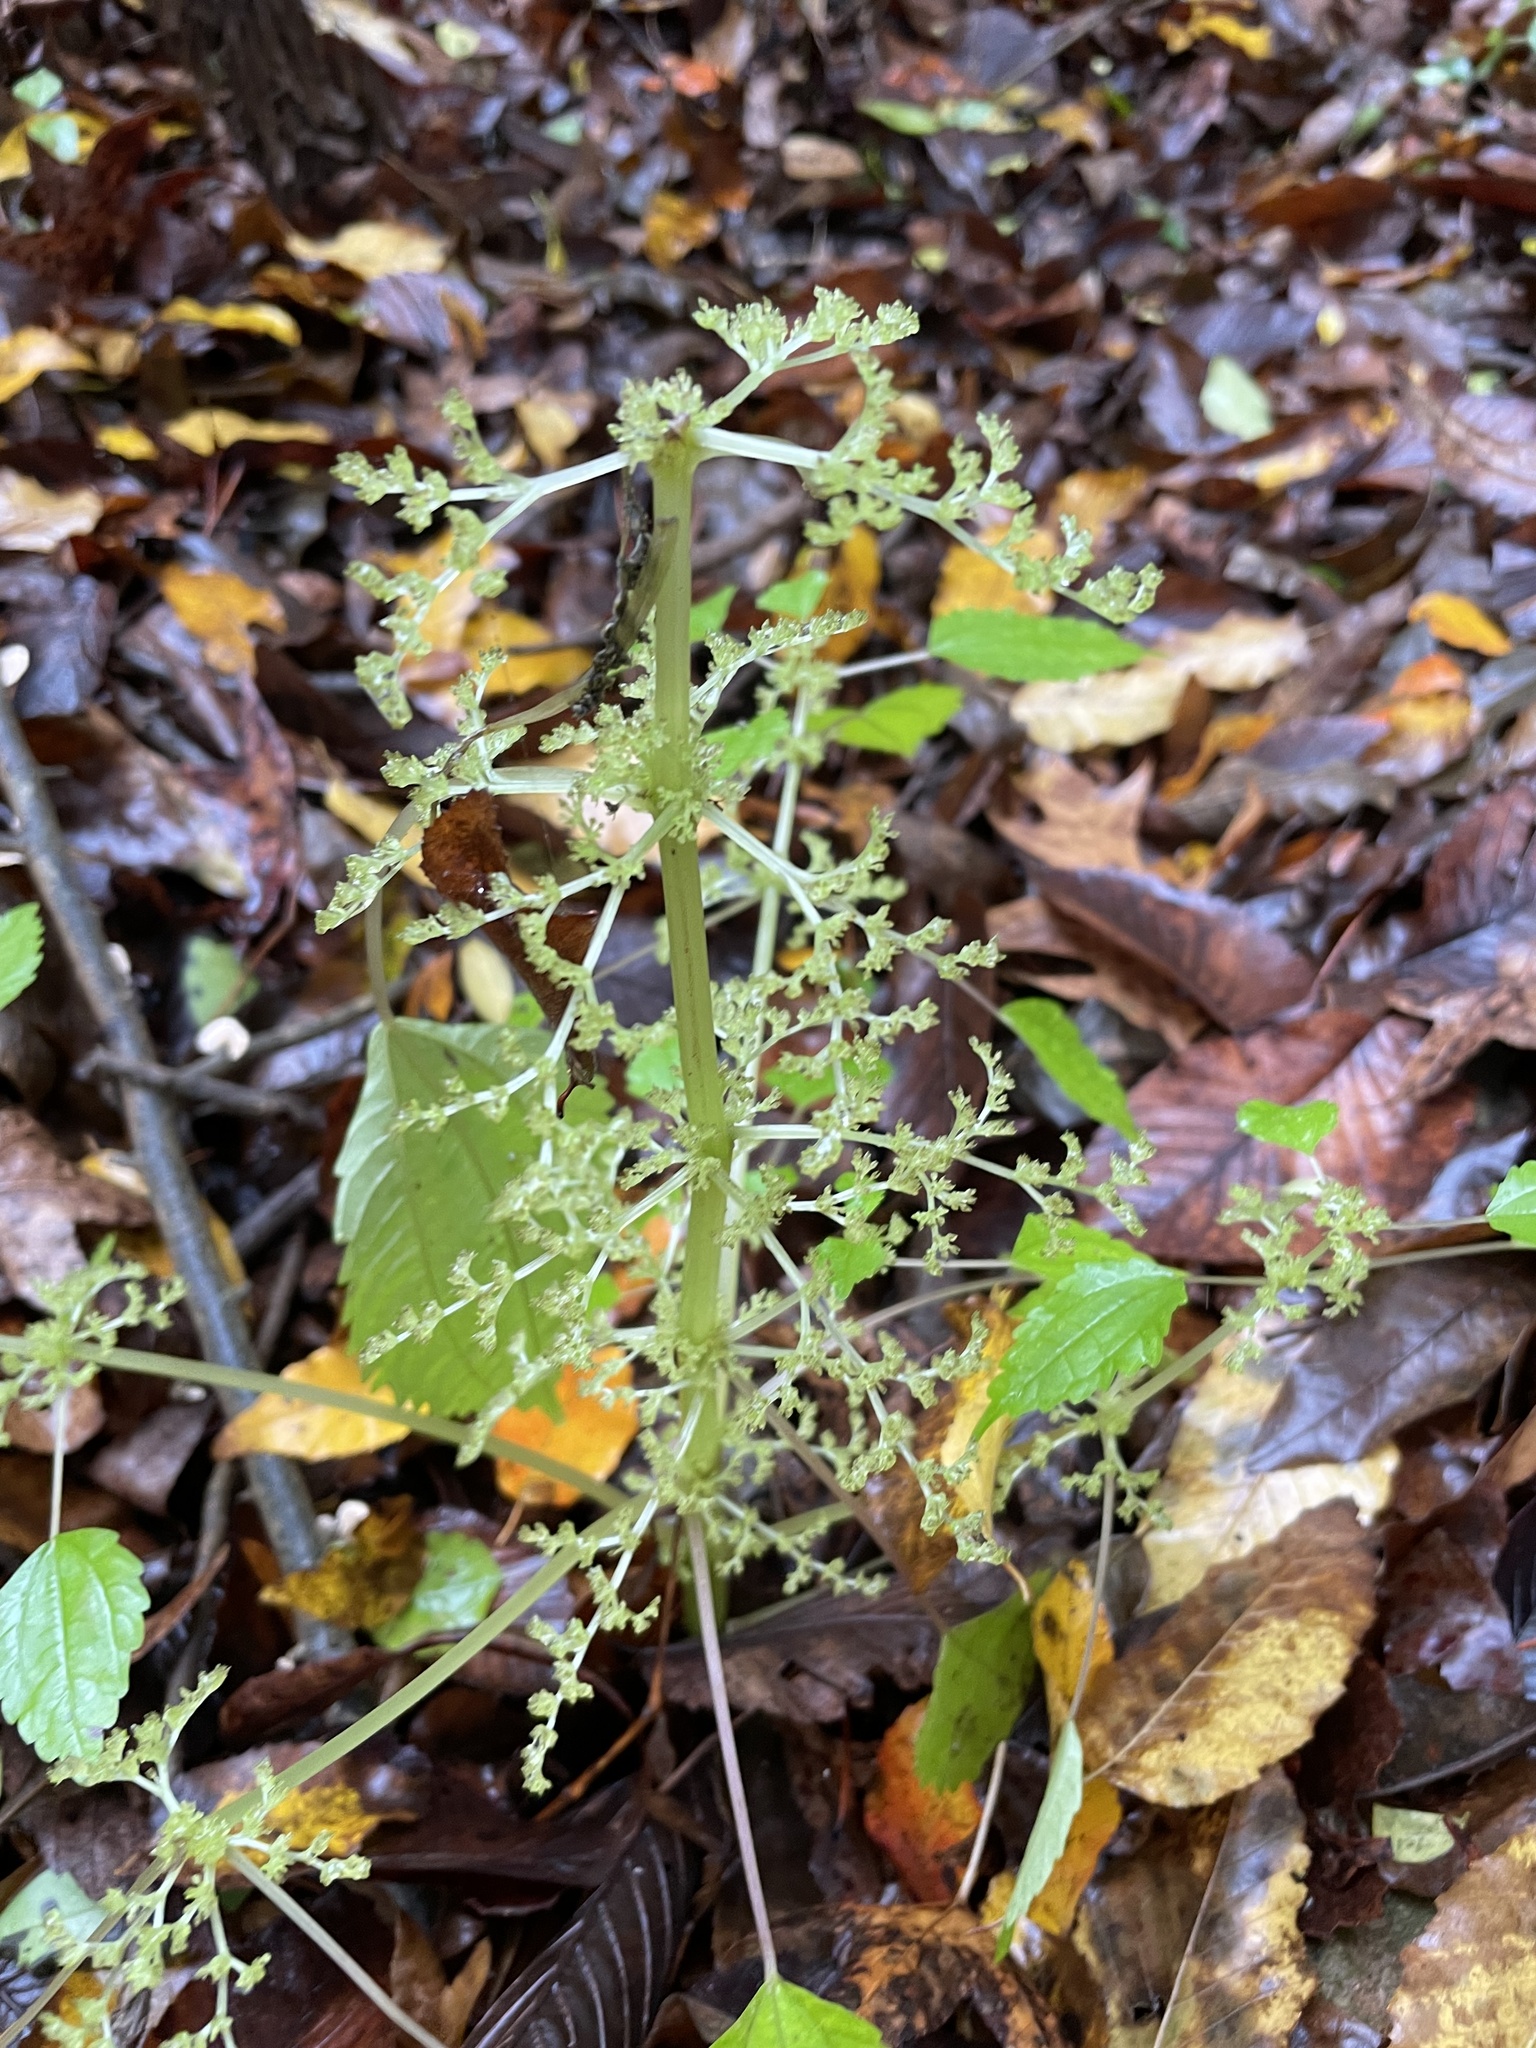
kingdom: Plantae
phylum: Tracheophyta
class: Magnoliopsida
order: Rosales
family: Urticaceae
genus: Pilea
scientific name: Pilea pumila
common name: Clearweed
